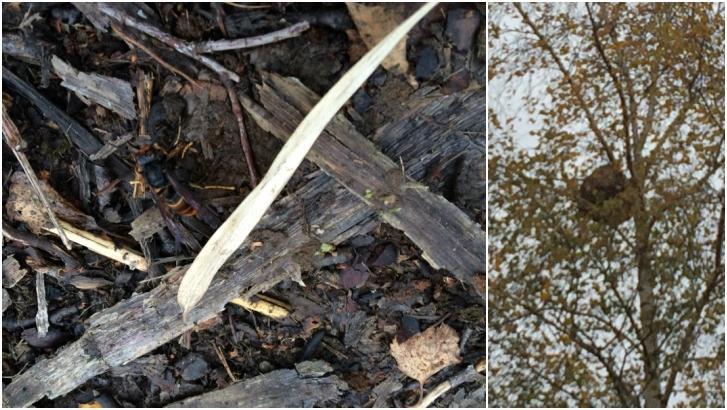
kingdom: Animalia
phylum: Arthropoda
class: Insecta
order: Hymenoptera
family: Vespidae
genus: Vespa
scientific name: Vespa velutina
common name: Asian hornet
